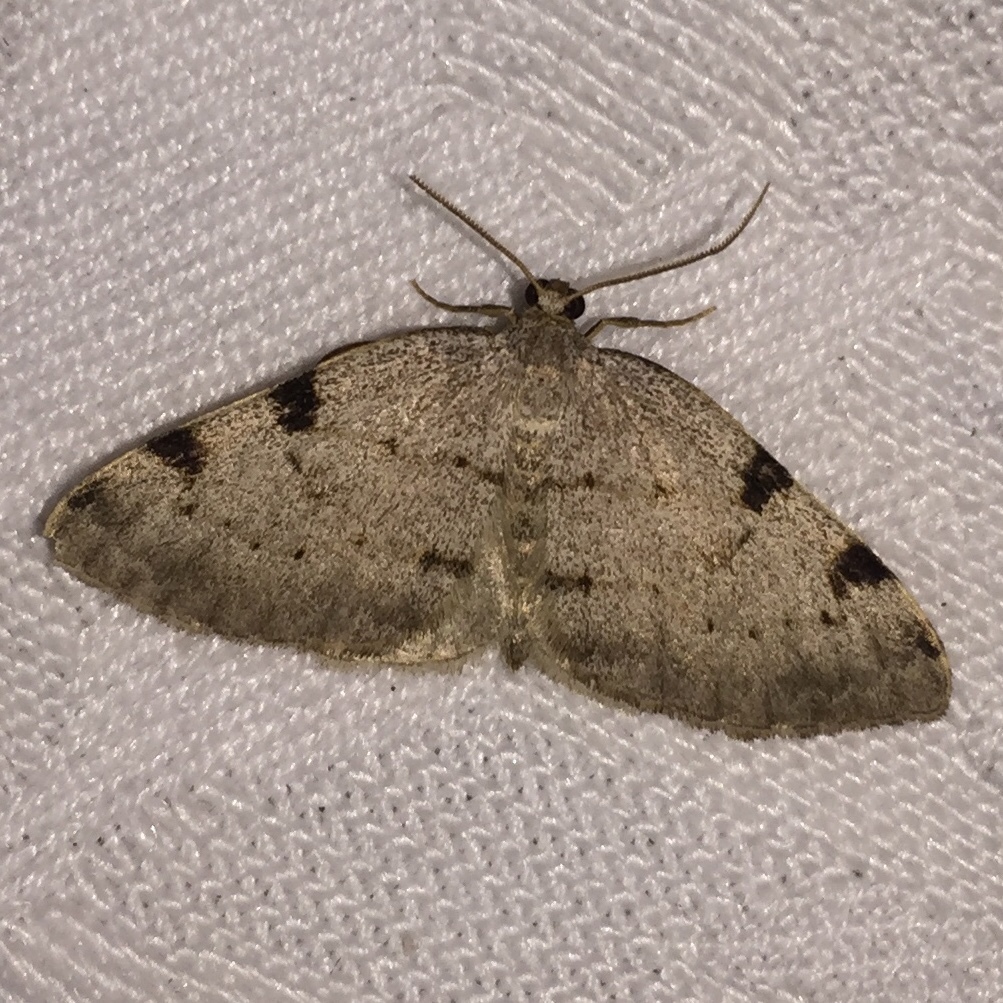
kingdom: Animalia
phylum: Arthropoda
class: Insecta
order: Lepidoptera
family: Geometridae
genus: Heterophleps
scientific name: Heterophleps refusaria
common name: Three-patched bigwing
